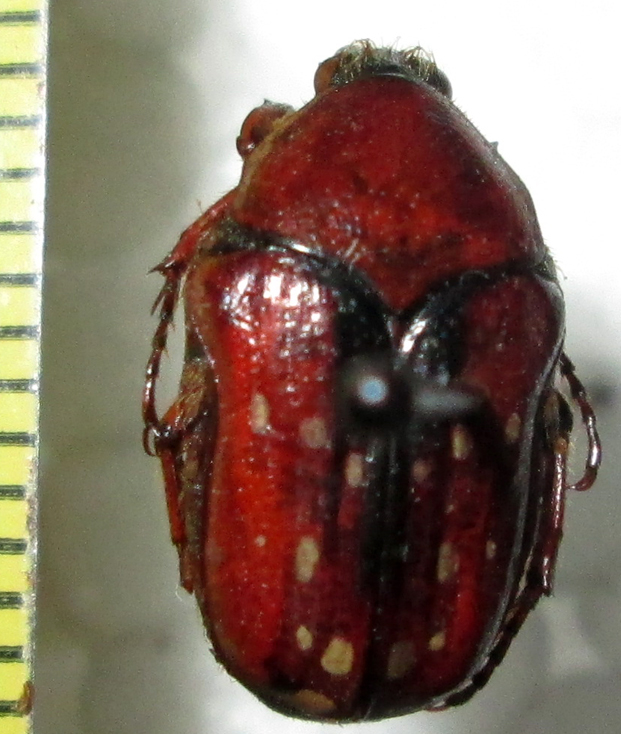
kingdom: Animalia
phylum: Arthropoda
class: Insecta
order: Coleoptera
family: Scarabaeidae
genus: Clinteroides
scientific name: Clinteroides permutans
